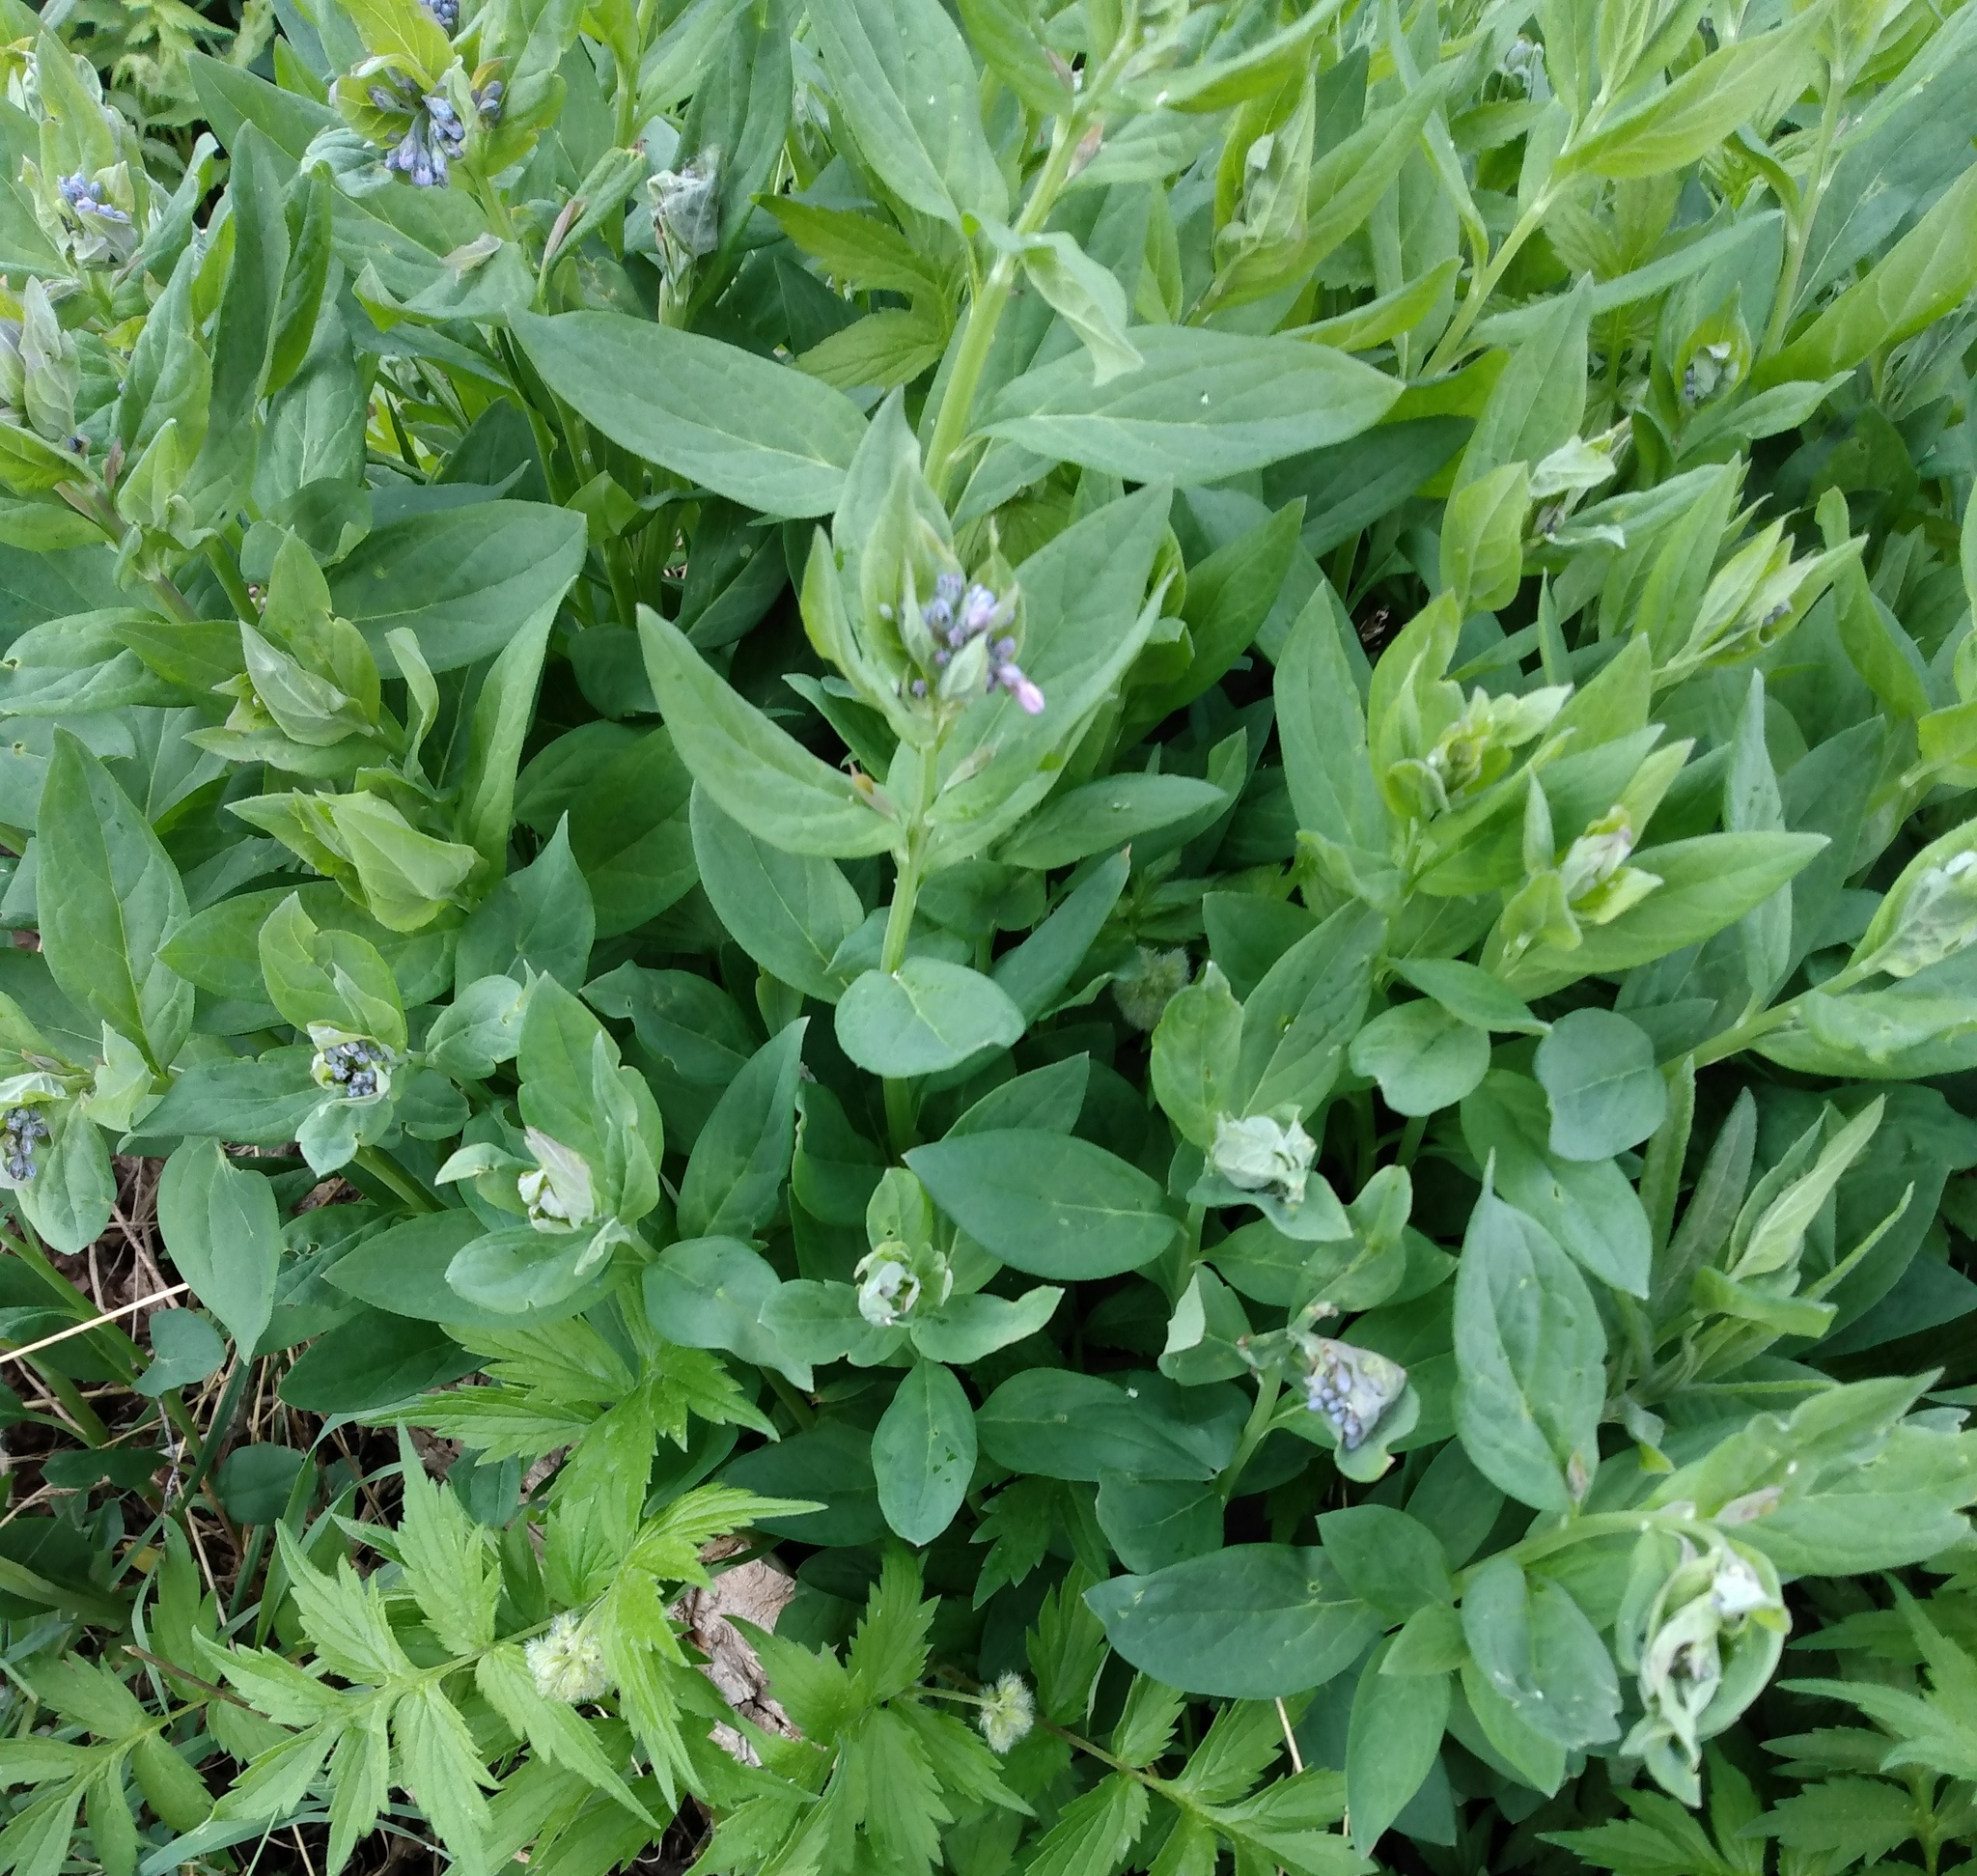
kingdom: Plantae
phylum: Tracheophyta
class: Magnoliopsida
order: Boraginales
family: Boraginaceae
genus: Mertensia
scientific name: Mertensia ciliata
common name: Tall chiming-bells
